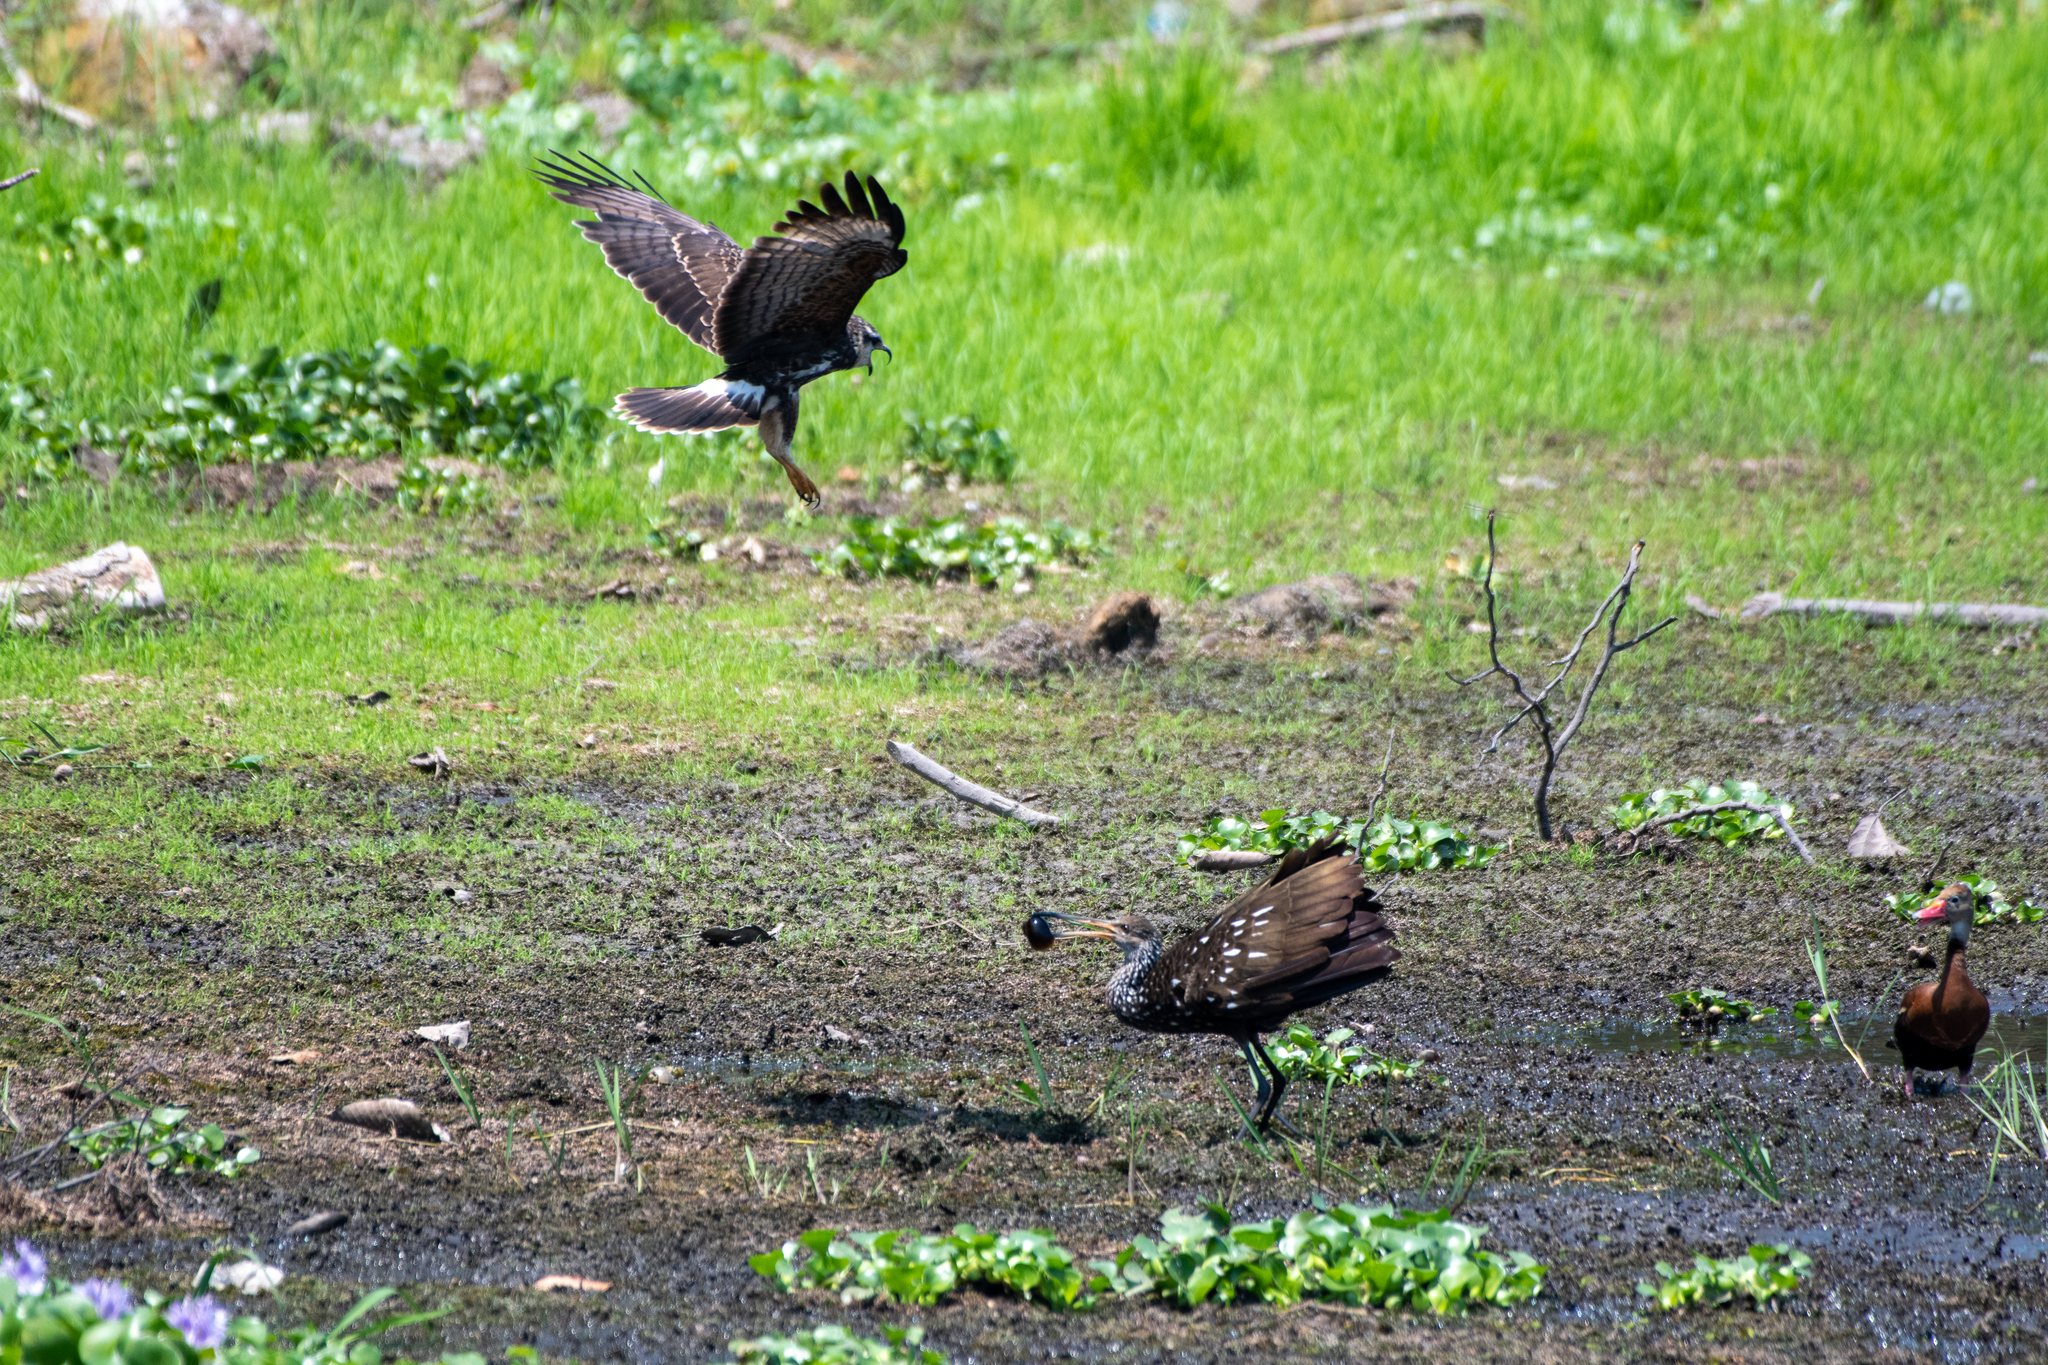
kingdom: Animalia
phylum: Chordata
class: Aves
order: Accipitriformes
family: Accipitridae
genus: Rostrhamus
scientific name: Rostrhamus sociabilis
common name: Snail kite
